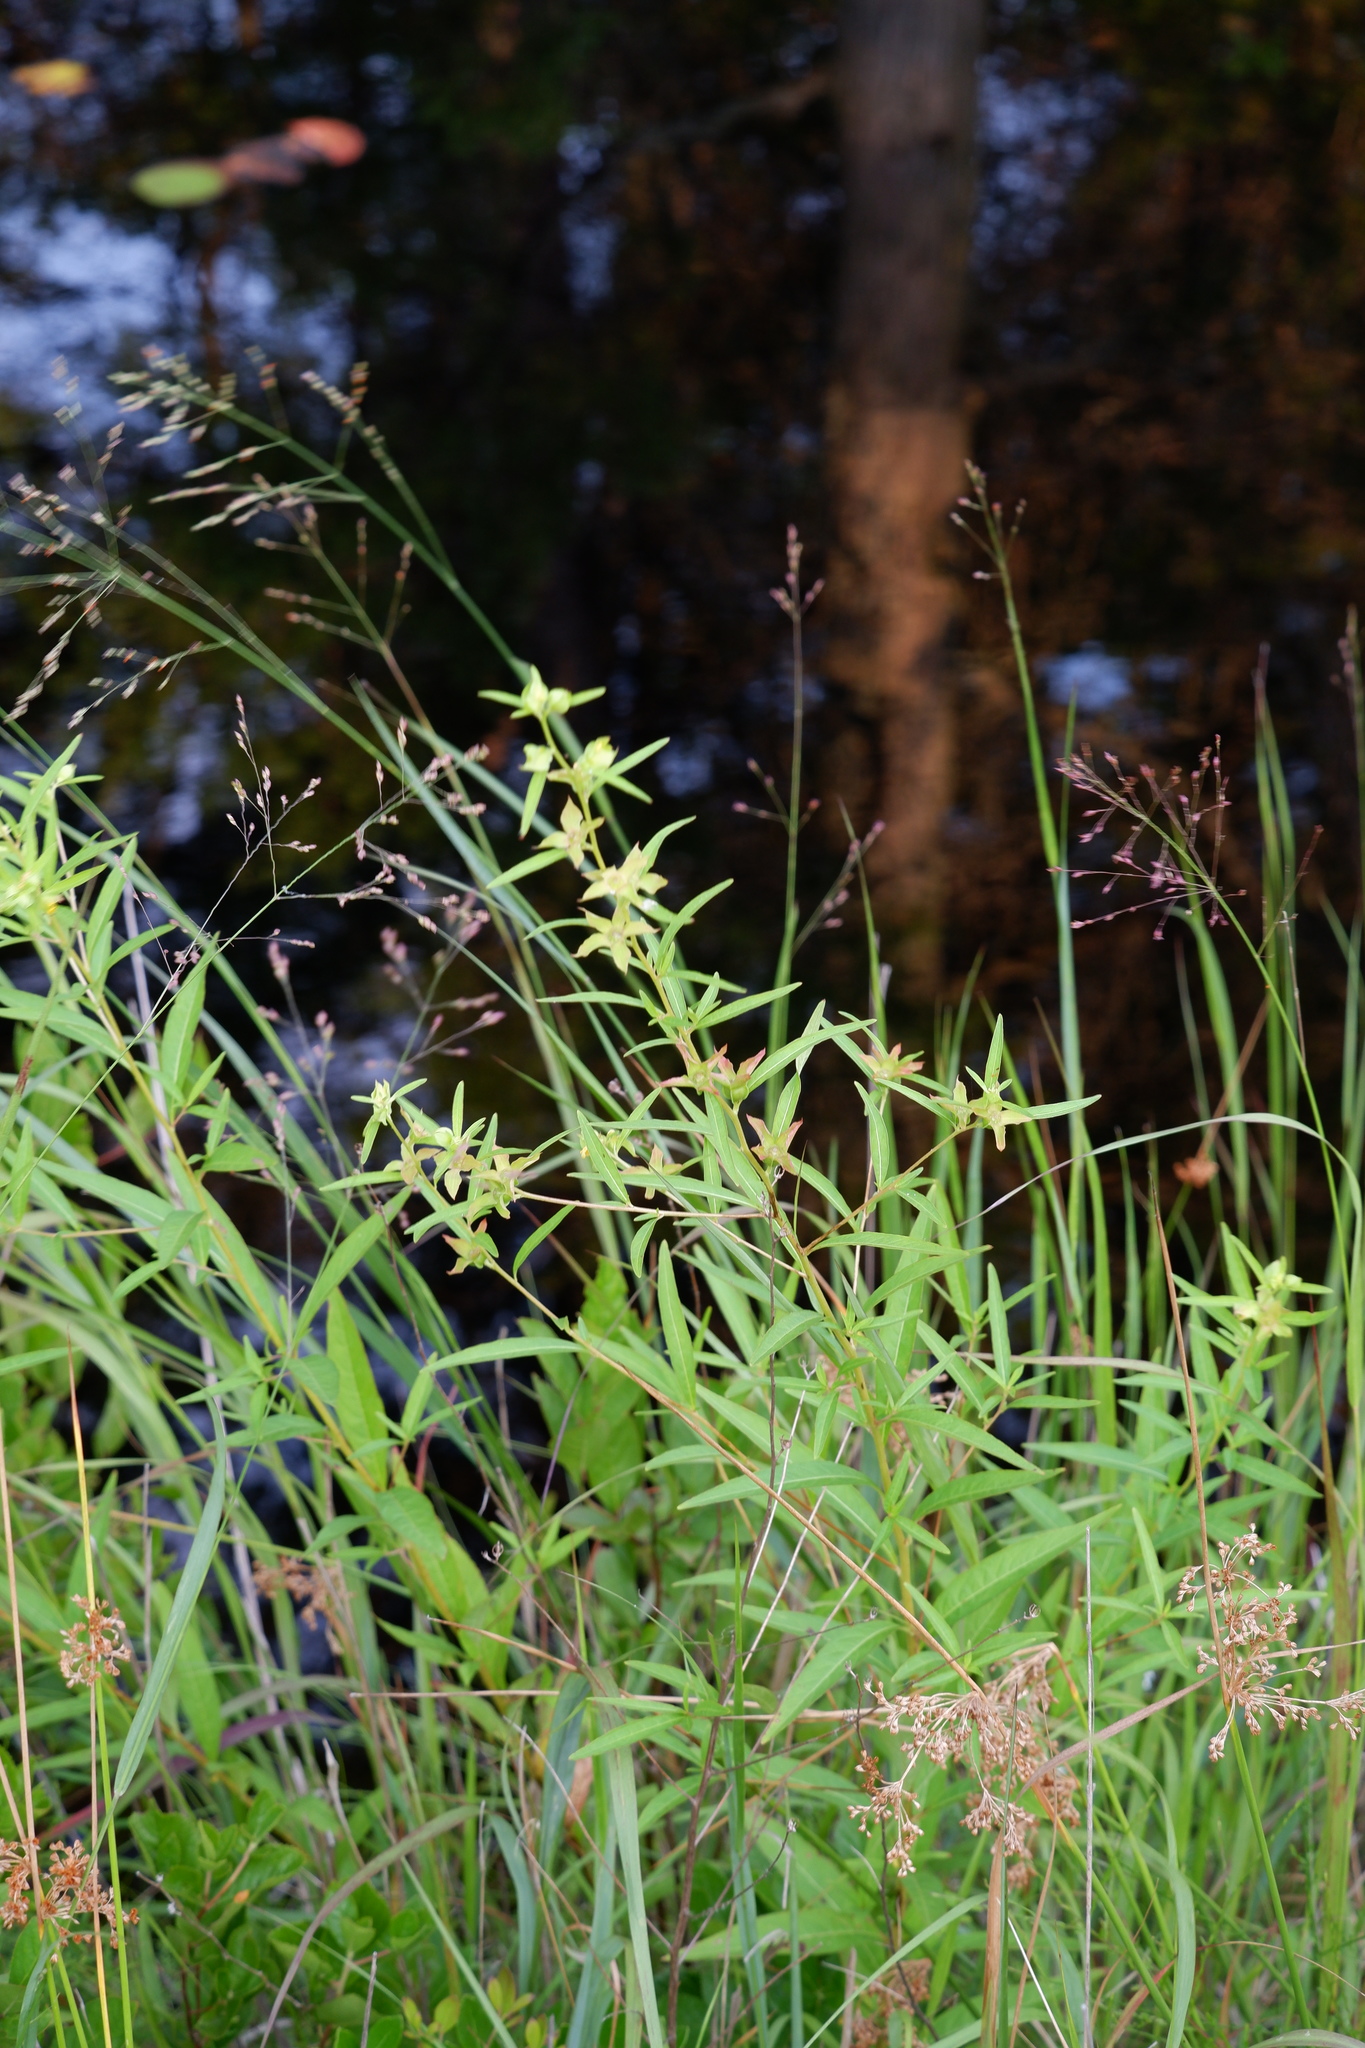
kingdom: Plantae
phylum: Tracheophyta
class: Magnoliopsida
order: Myrtales
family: Onagraceae
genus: Ludwigia
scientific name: Ludwigia alternifolia
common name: Rattlebox
